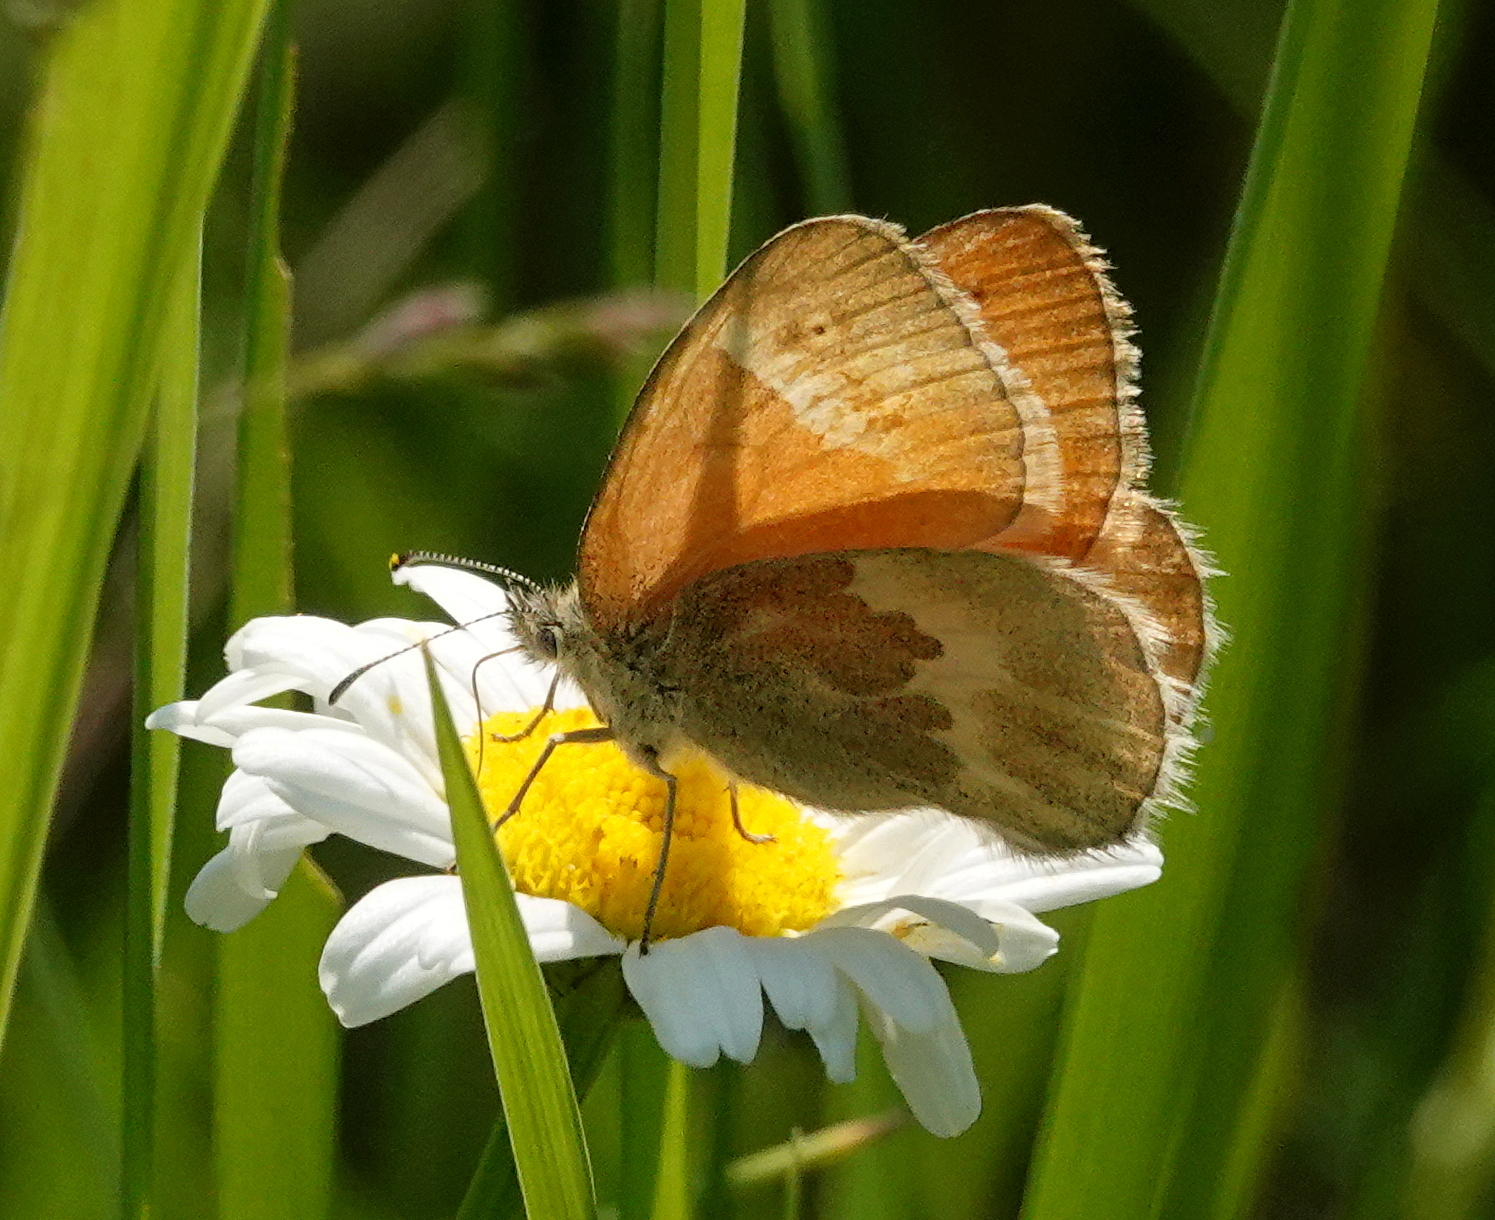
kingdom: Animalia
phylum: Arthropoda
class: Insecta
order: Lepidoptera
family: Nymphalidae
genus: Coenonympha
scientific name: Coenonympha california
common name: Common ringlet
